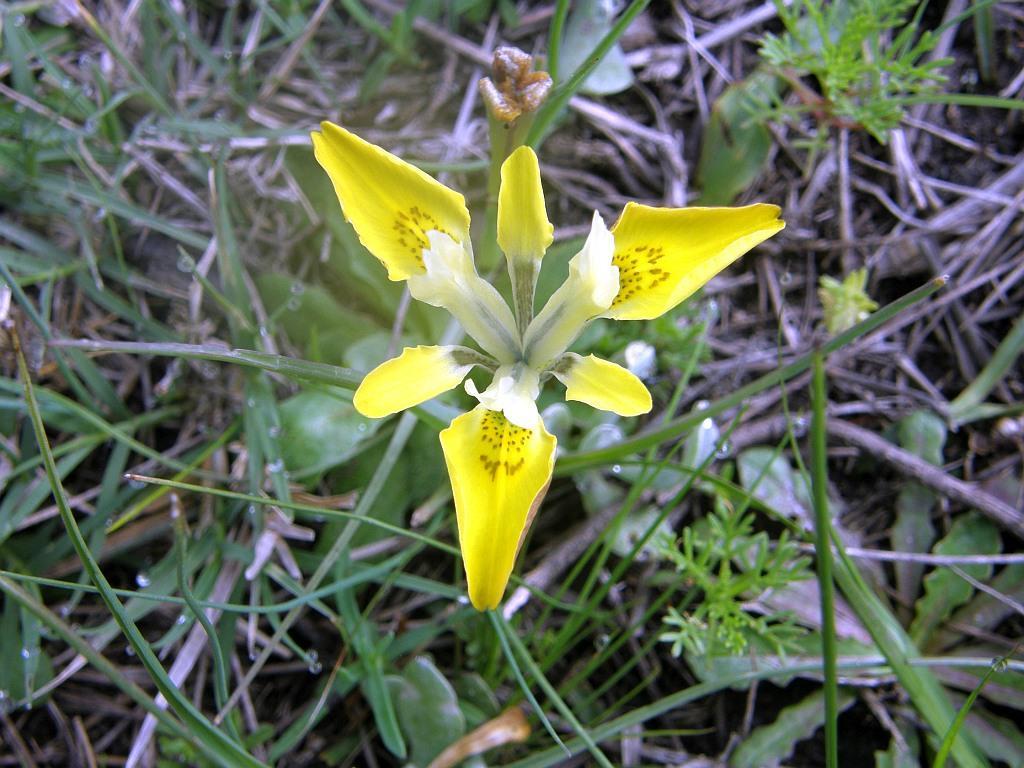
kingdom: Plantae
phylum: Tracheophyta
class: Liliopsida
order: Asparagales
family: Iridaceae
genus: Moraea
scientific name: Moraea macronyx
